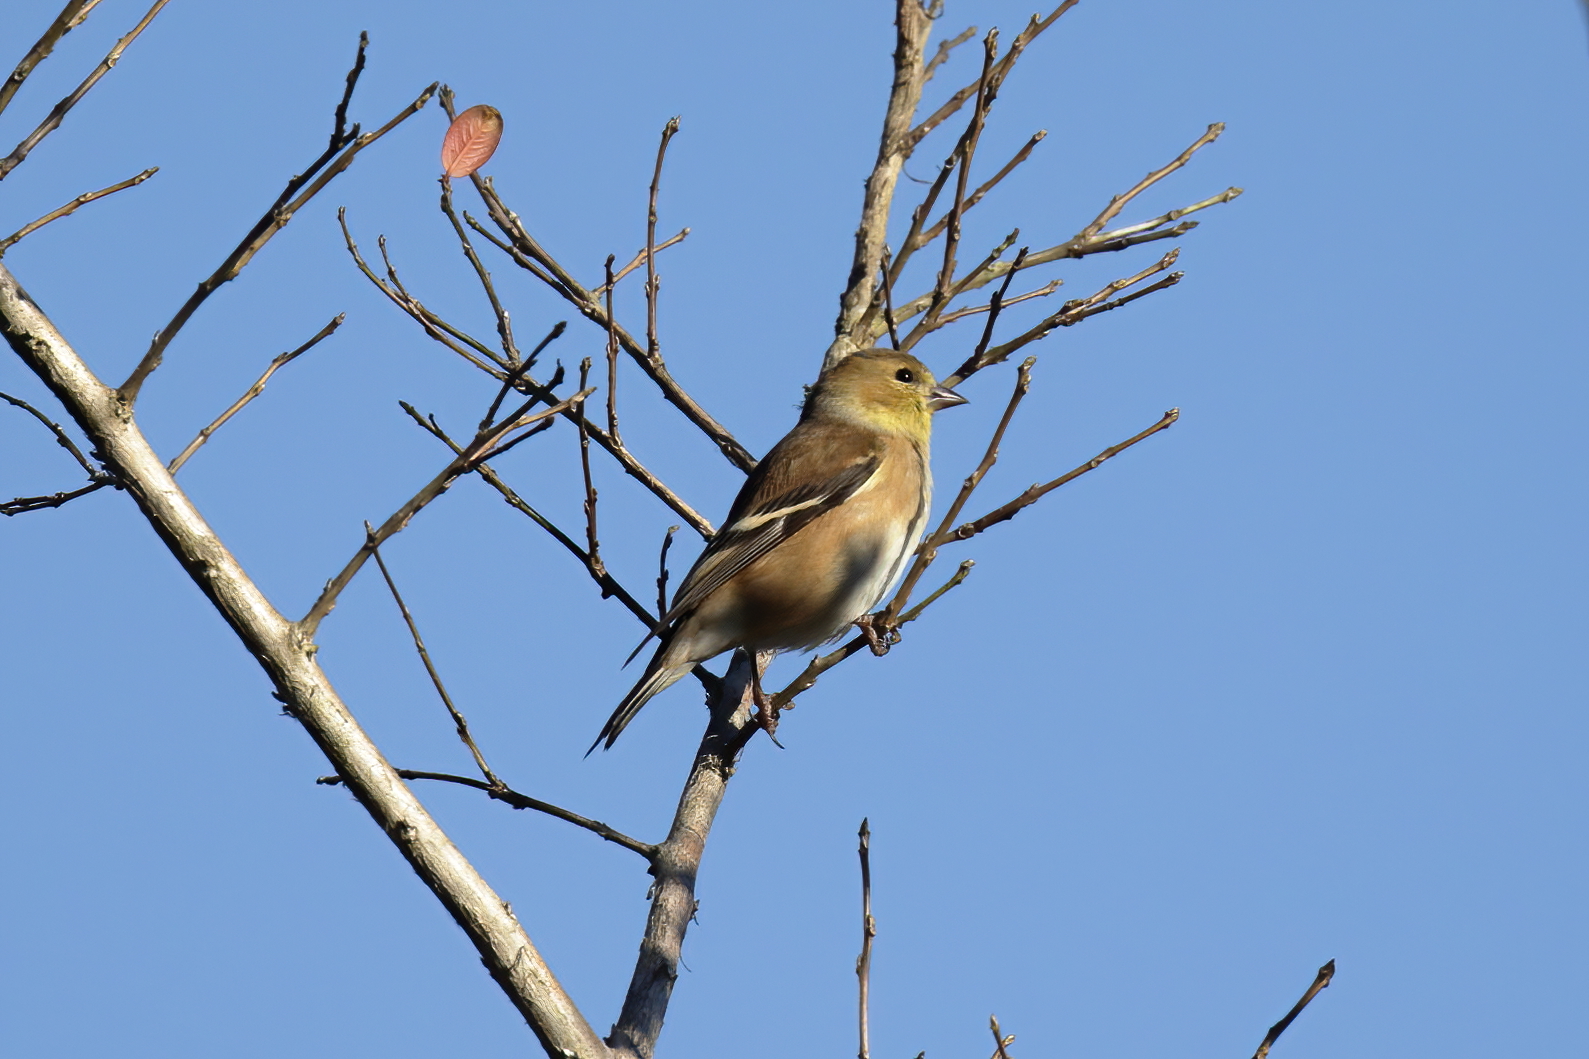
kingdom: Animalia
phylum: Chordata
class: Aves
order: Passeriformes
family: Fringillidae
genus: Spinus
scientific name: Spinus tristis
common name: American goldfinch
